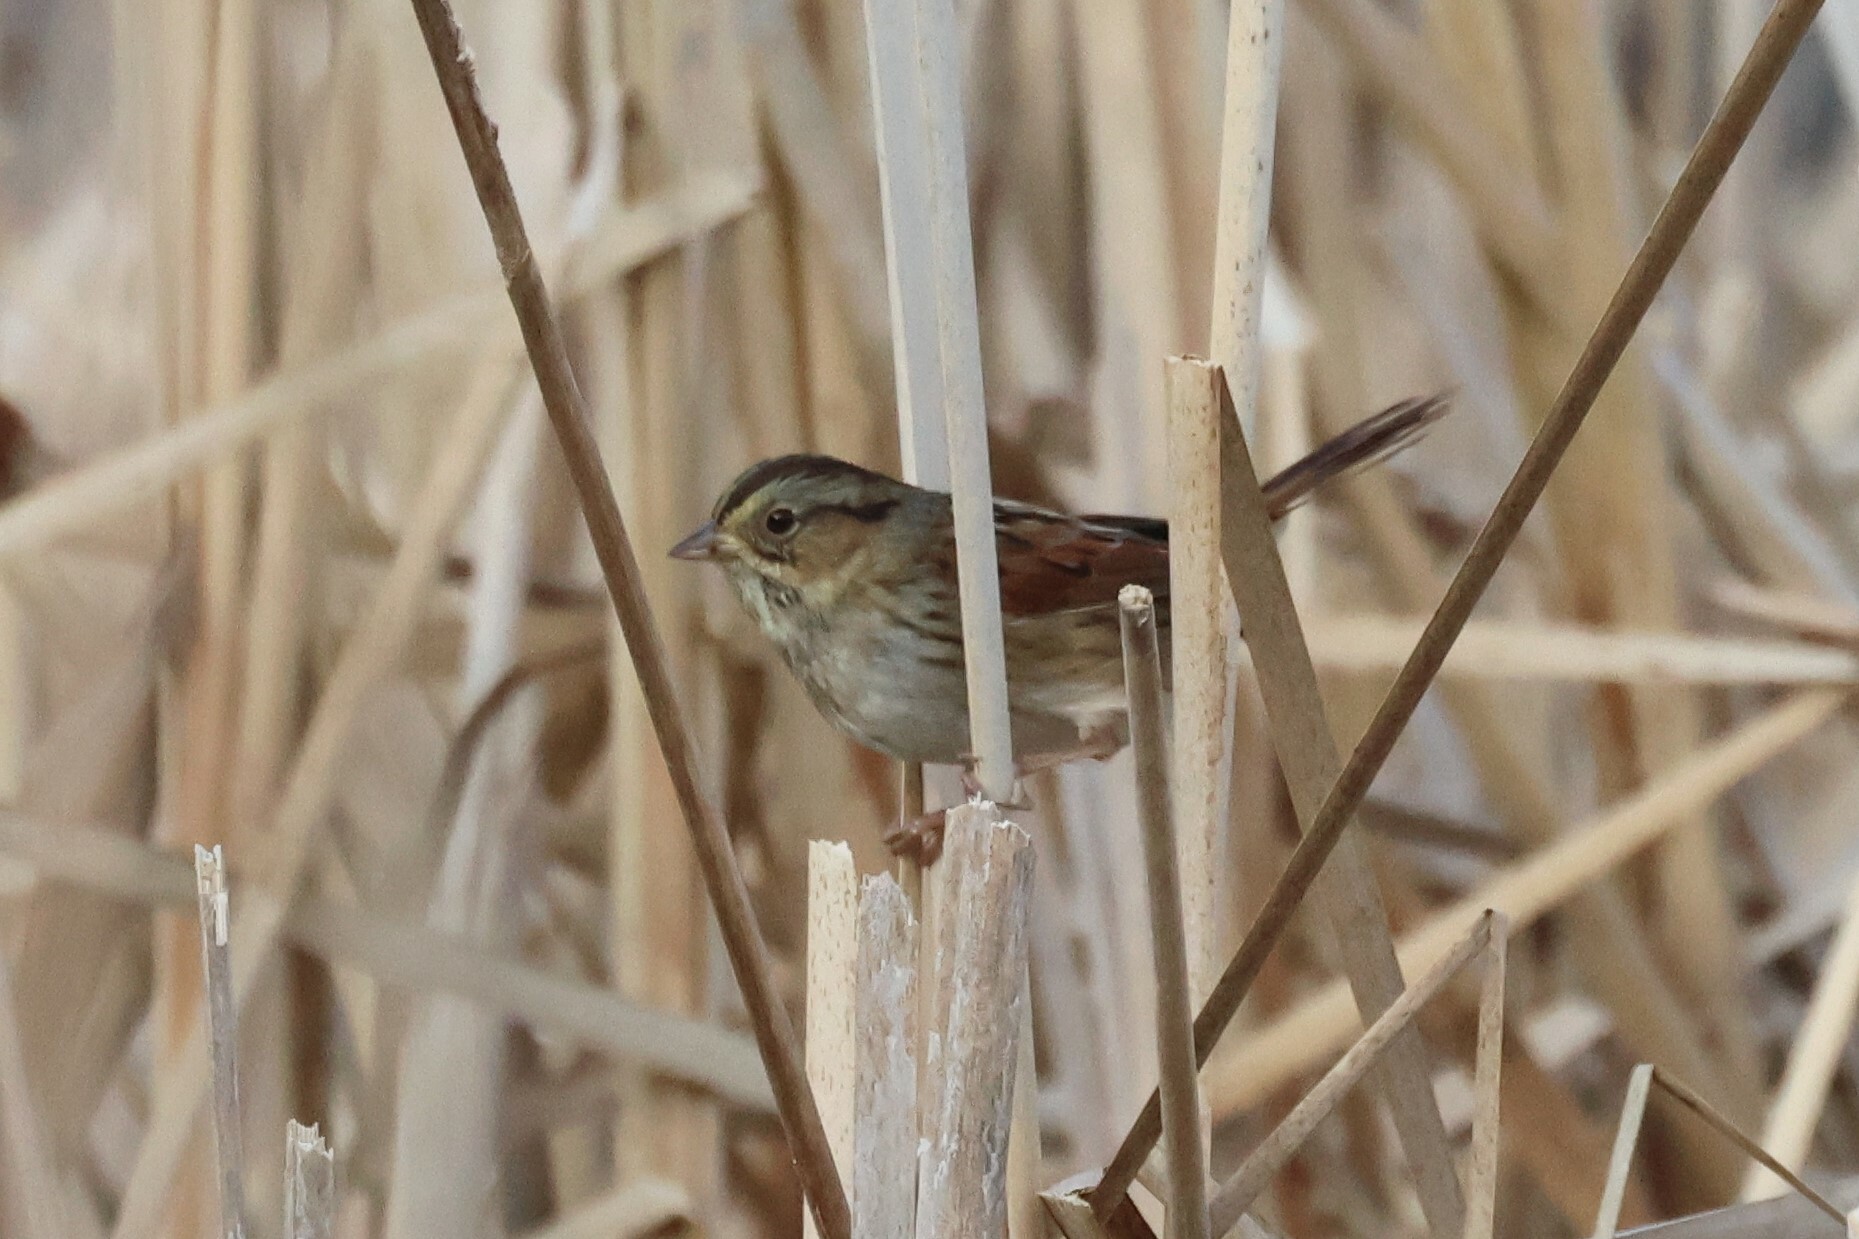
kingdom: Animalia
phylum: Chordata
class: Aves
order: Passeriformes
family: Passerellidae
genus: Melospiza
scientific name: Melospiza georgiana
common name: Swamp sparrow
